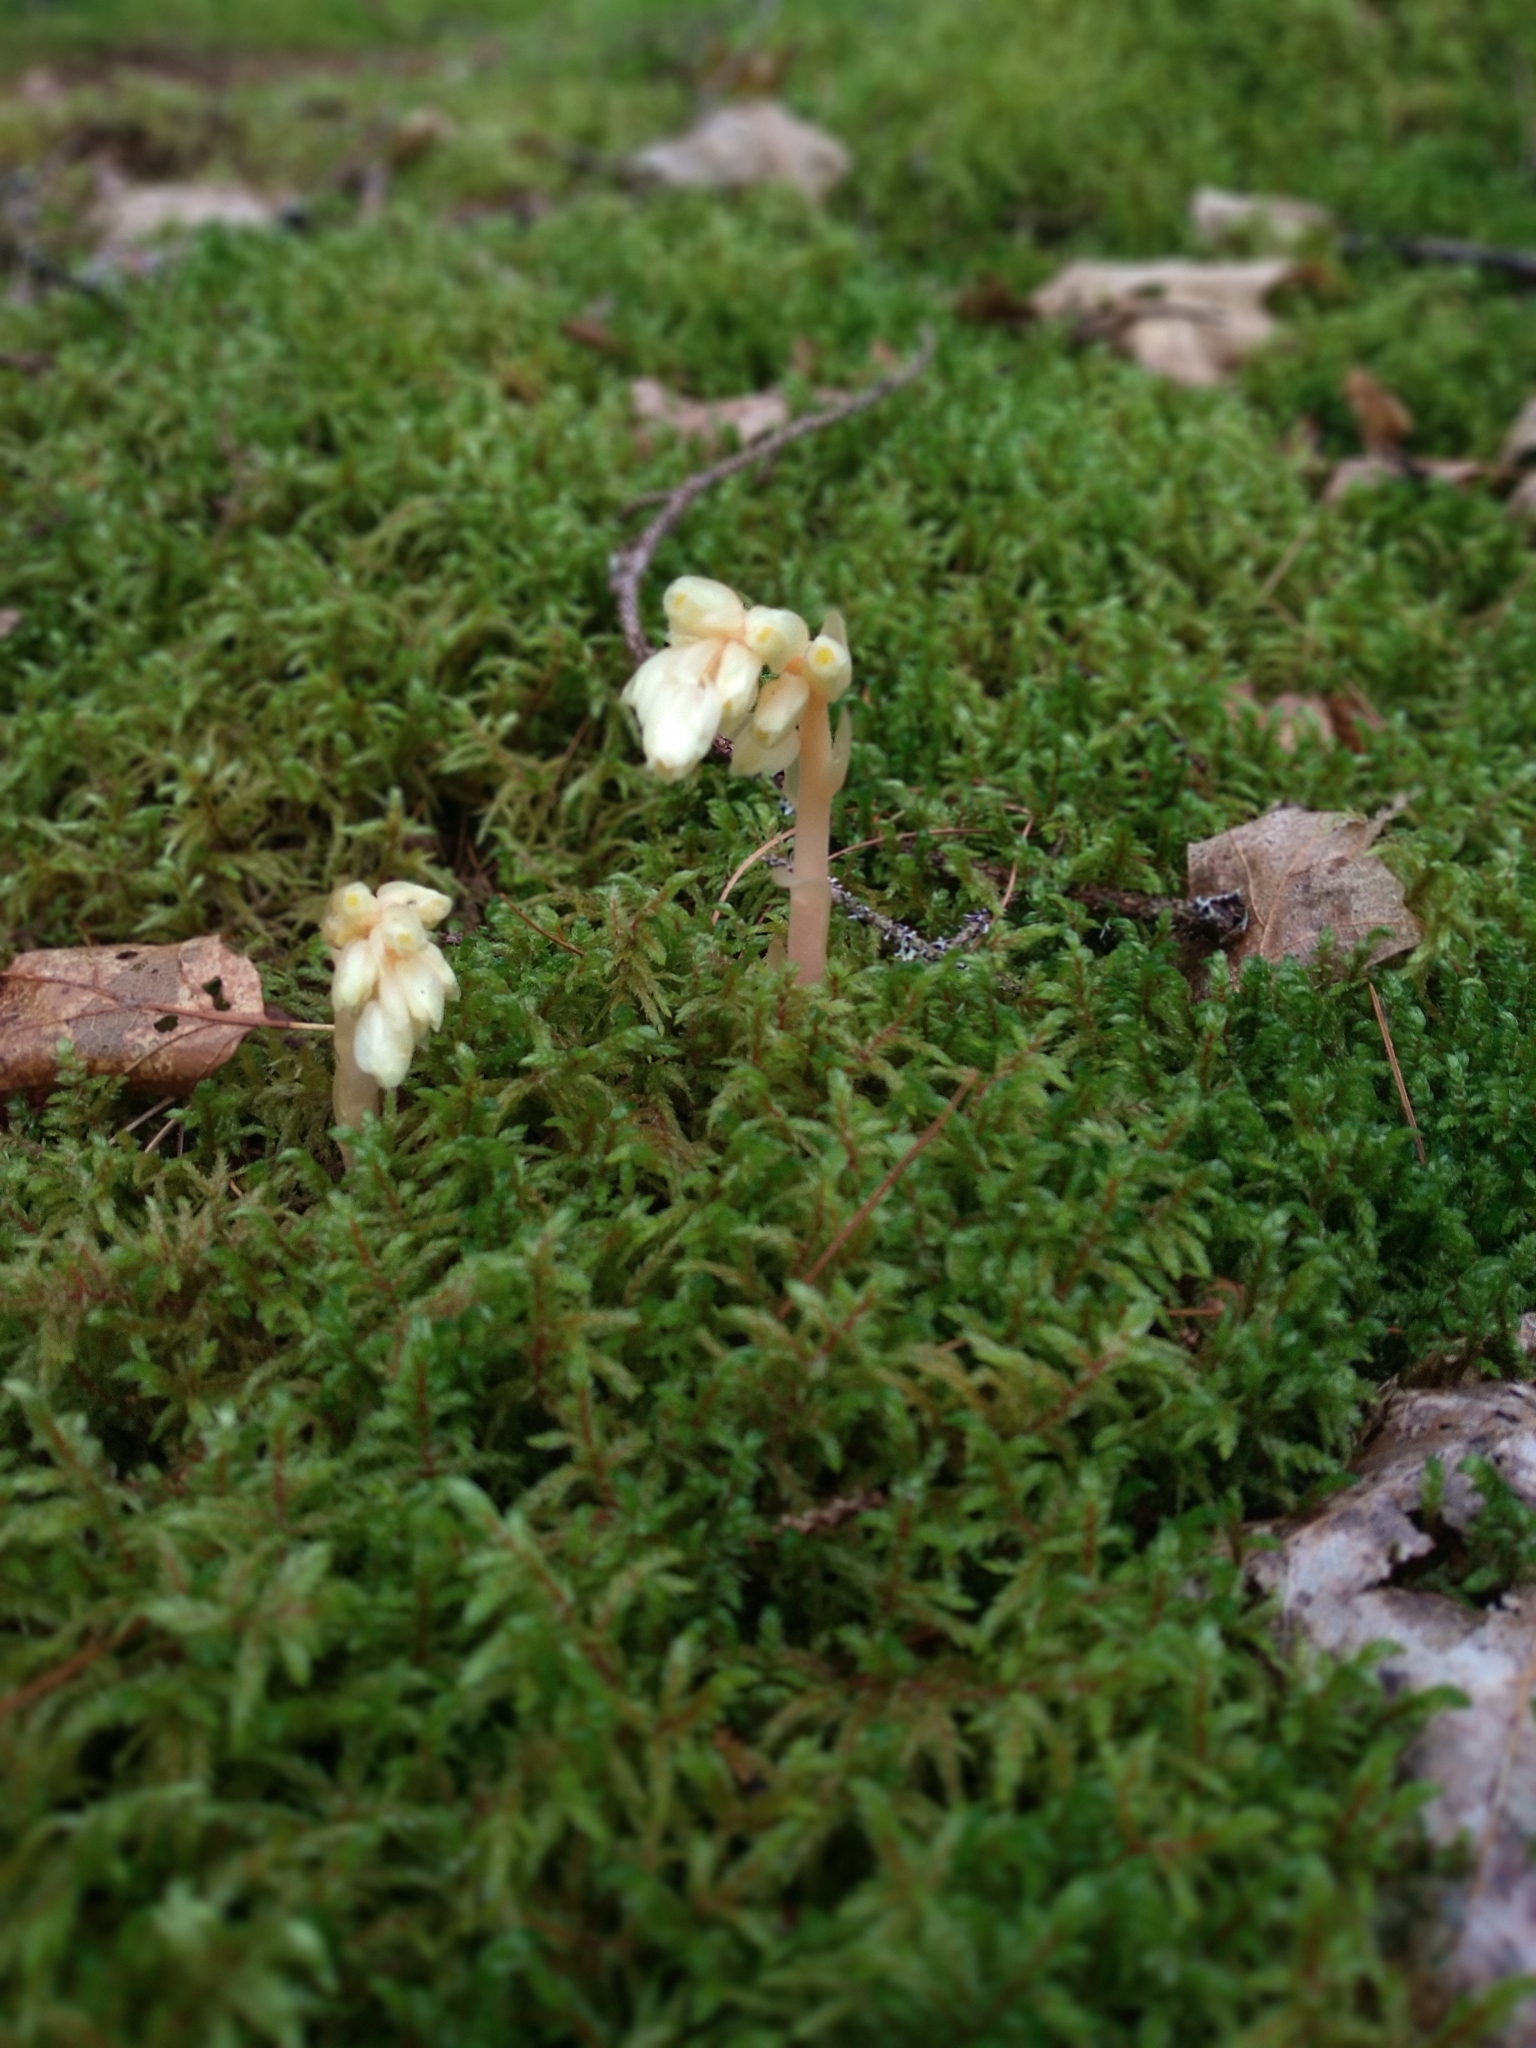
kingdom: Plantae
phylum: Tracheophyta
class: Magnoliopsida
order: Ericales
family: Ericaceae
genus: Hypopitys
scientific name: Hypopitys monotropa
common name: Yellow bird's-nest
